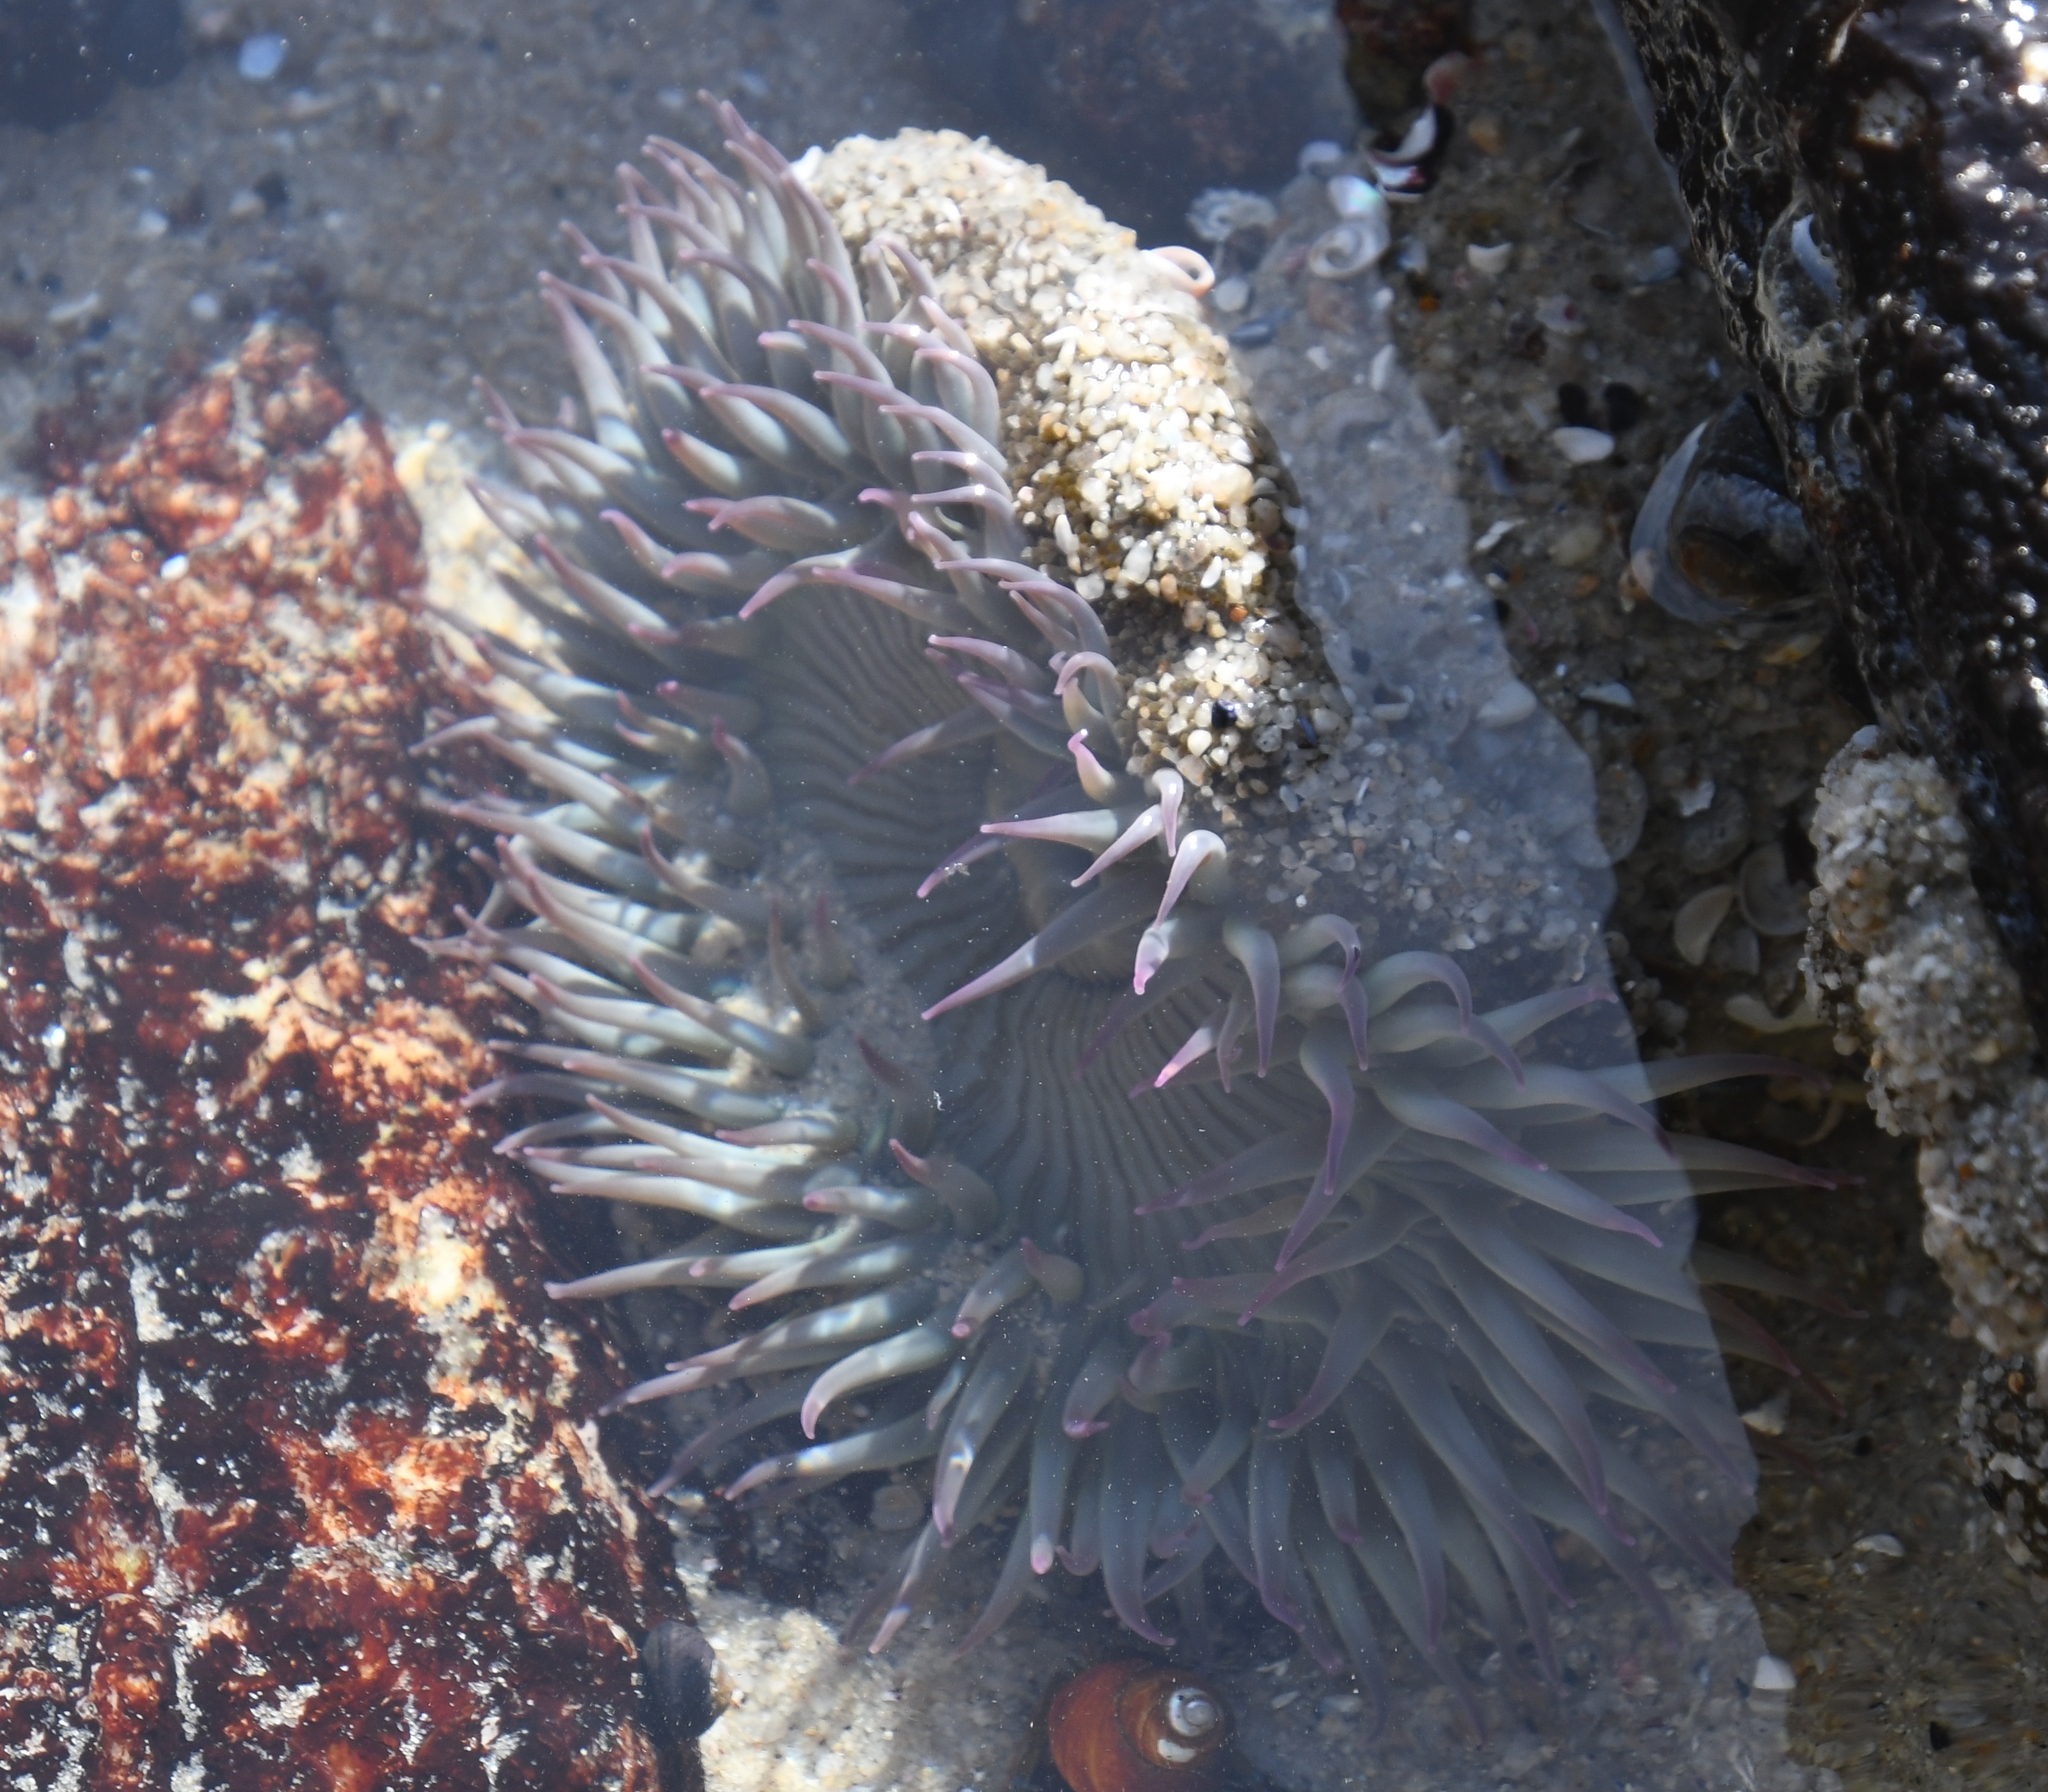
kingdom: Animalia
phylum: Cnidaria
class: Anthozoa
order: Actiniaria
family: Actiniidae
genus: Anthopleura
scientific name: Anthopleura sola
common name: Sun anemone
